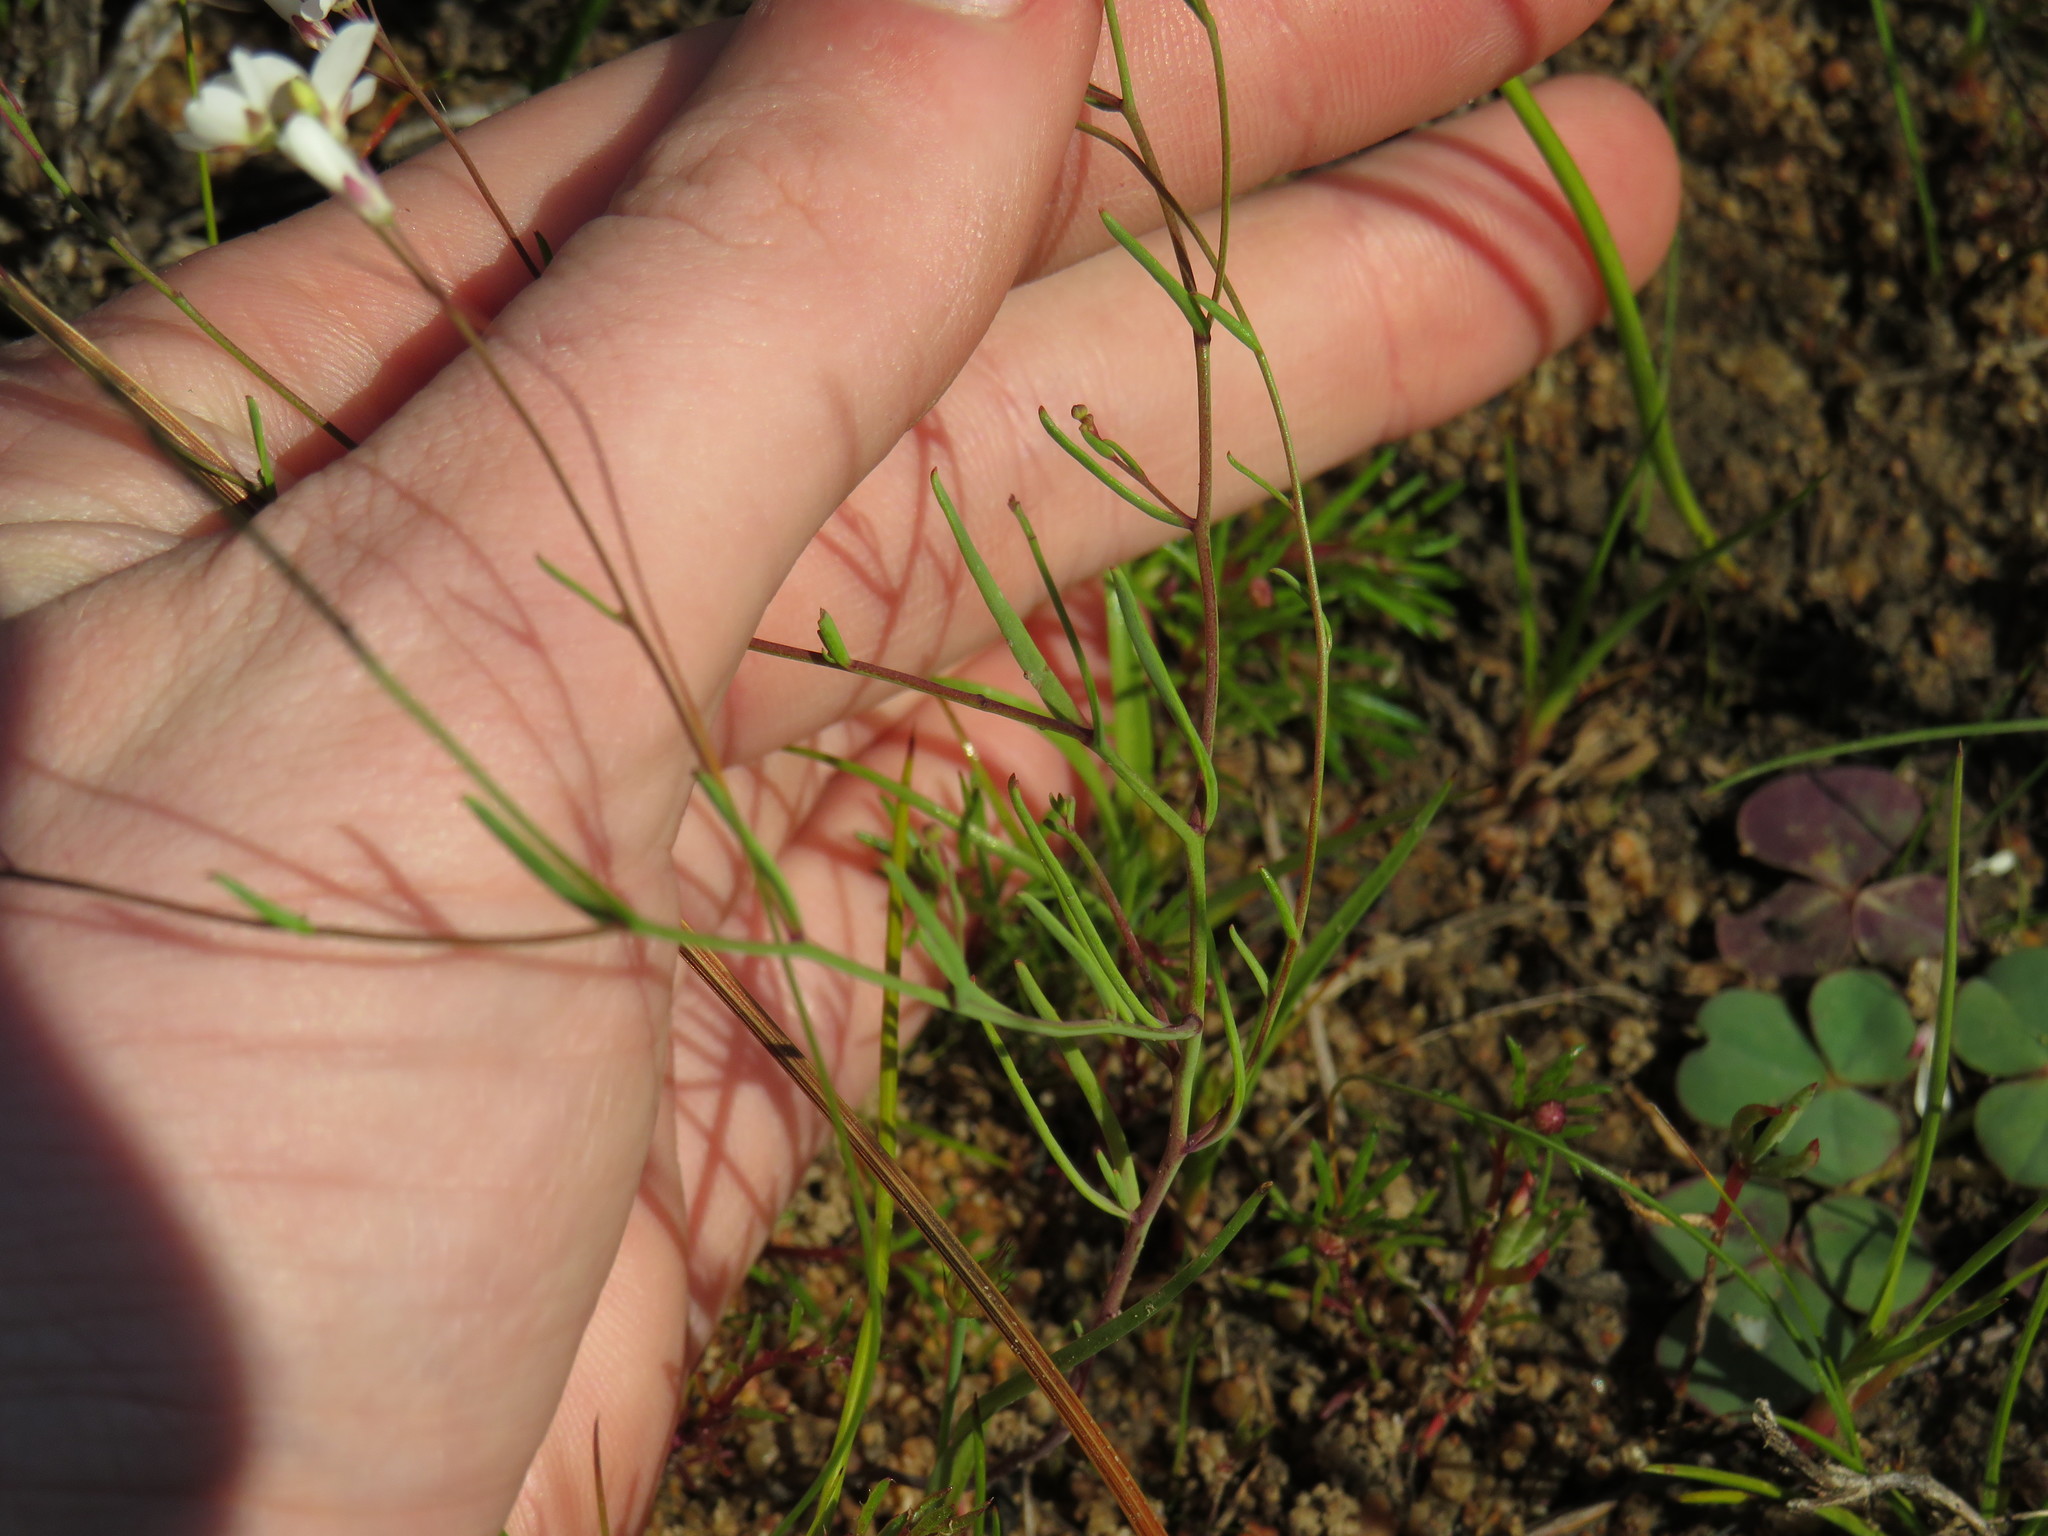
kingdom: Plantae
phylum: Tracheophyta
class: Magnoliopsida
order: Brassicales
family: Brassicaceae
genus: Heliophila
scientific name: Heliophila pusilla
